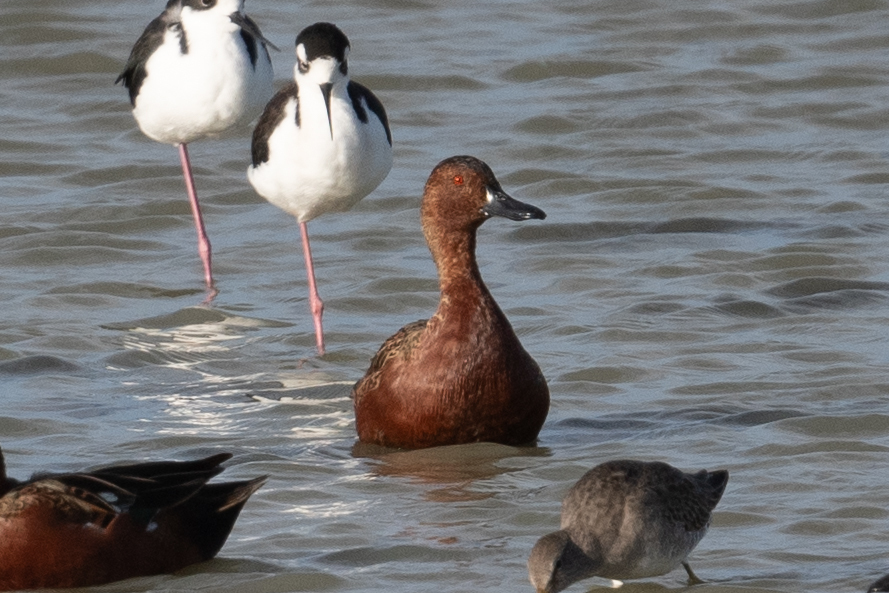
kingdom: Animalia
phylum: Chordata
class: Aves
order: Anseriformes
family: Anatidae
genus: Spatula
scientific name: Spatula cyanoptera
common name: Cinnamon teal
